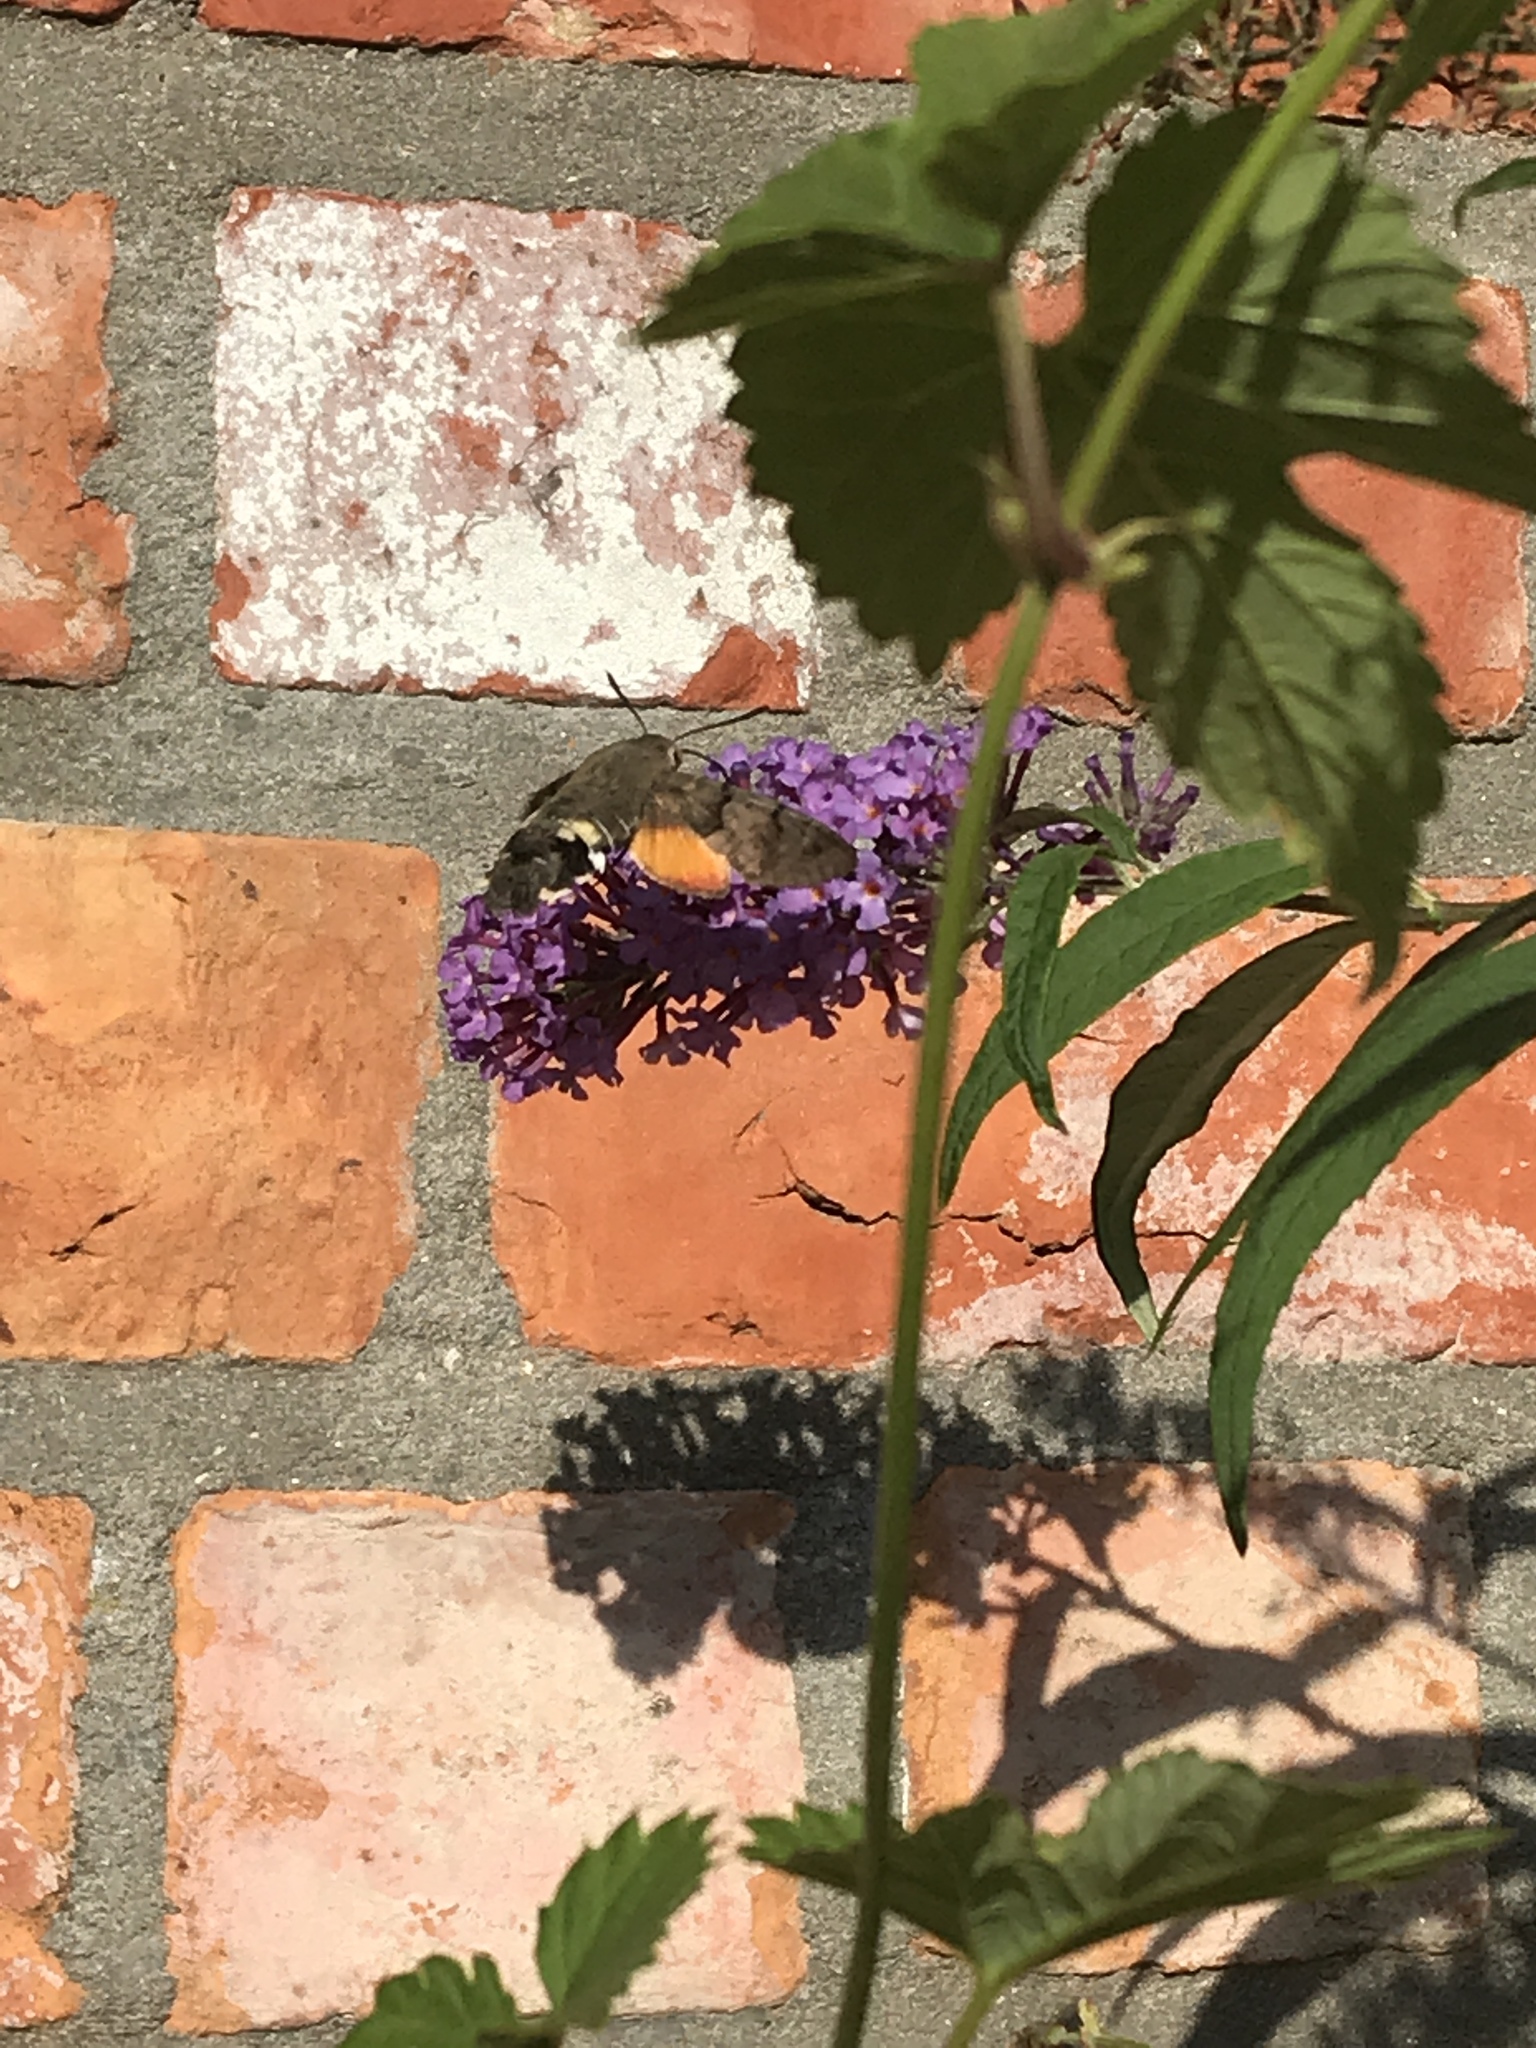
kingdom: Animalia
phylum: Arthropoda
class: Insecta
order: Lepidoptera
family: Sphingidae
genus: Macroglossum
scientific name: Macroglossum stellatarum
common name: Humming-bird hawk-moth
